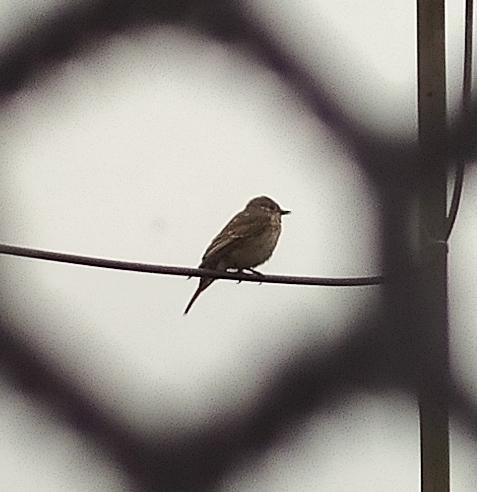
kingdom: Animalia
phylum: Chordata
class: Aves
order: Passeriformes
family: Muscicapidae
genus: Muscicapa
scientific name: Muscicapa striata
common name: Spotted flycatcher
